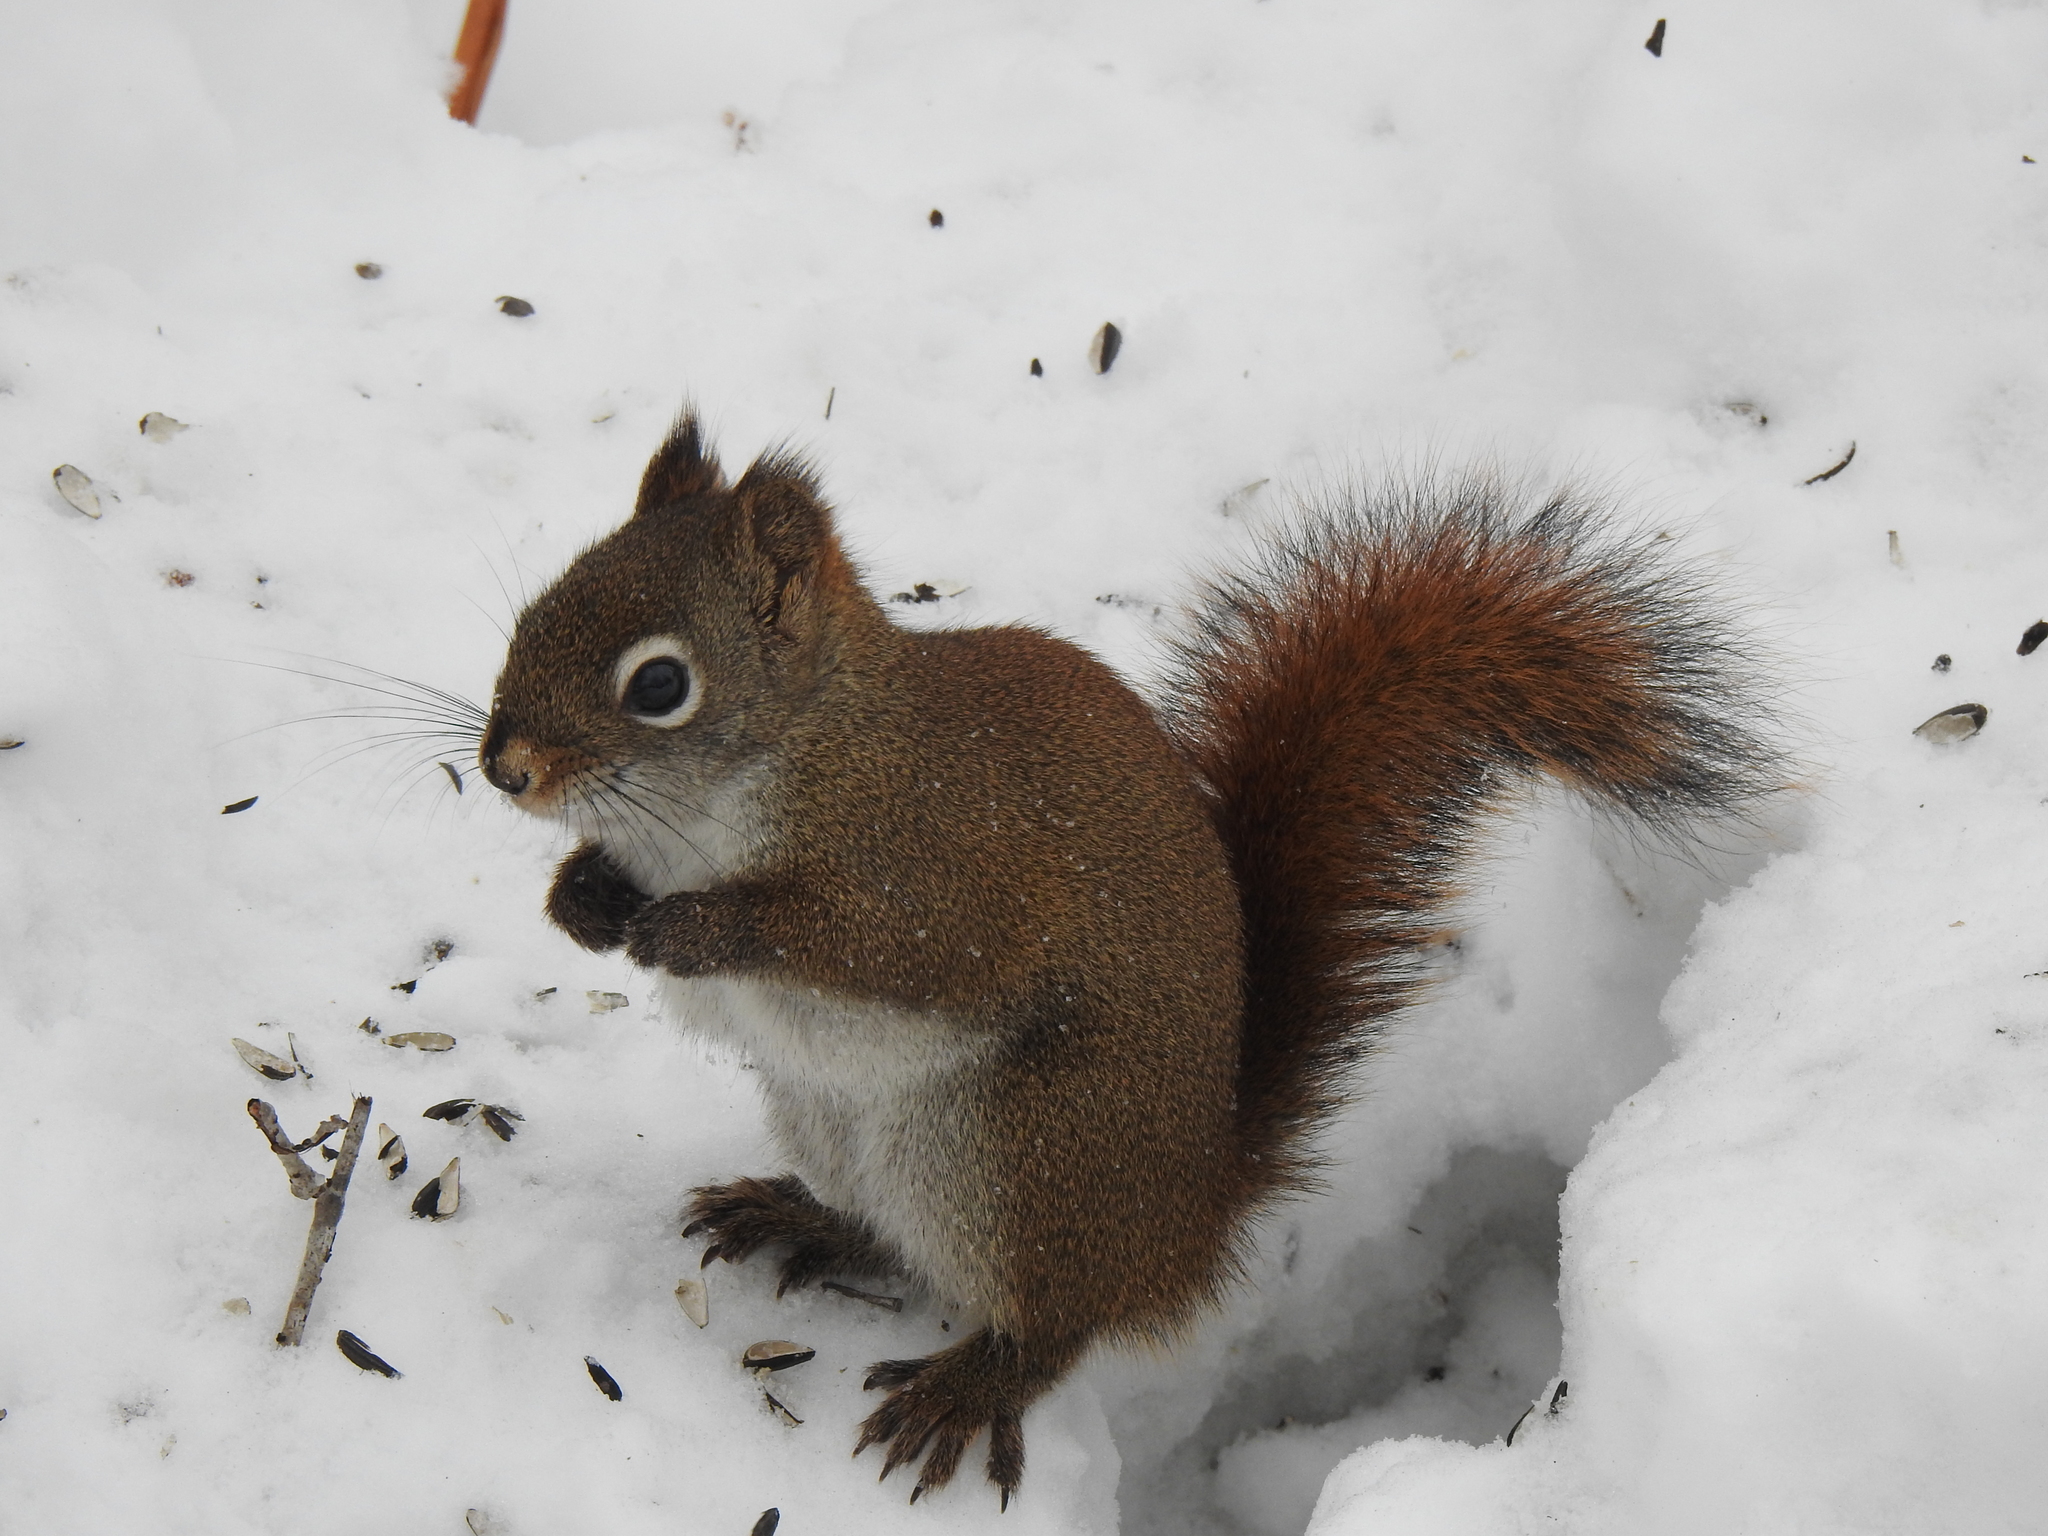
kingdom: Animalia
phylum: Chordata
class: Mammalia
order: Rodentia
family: Sciuridae
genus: Tamiasciurus
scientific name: Tamiasciurus hudsonicus
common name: Red squirrel
